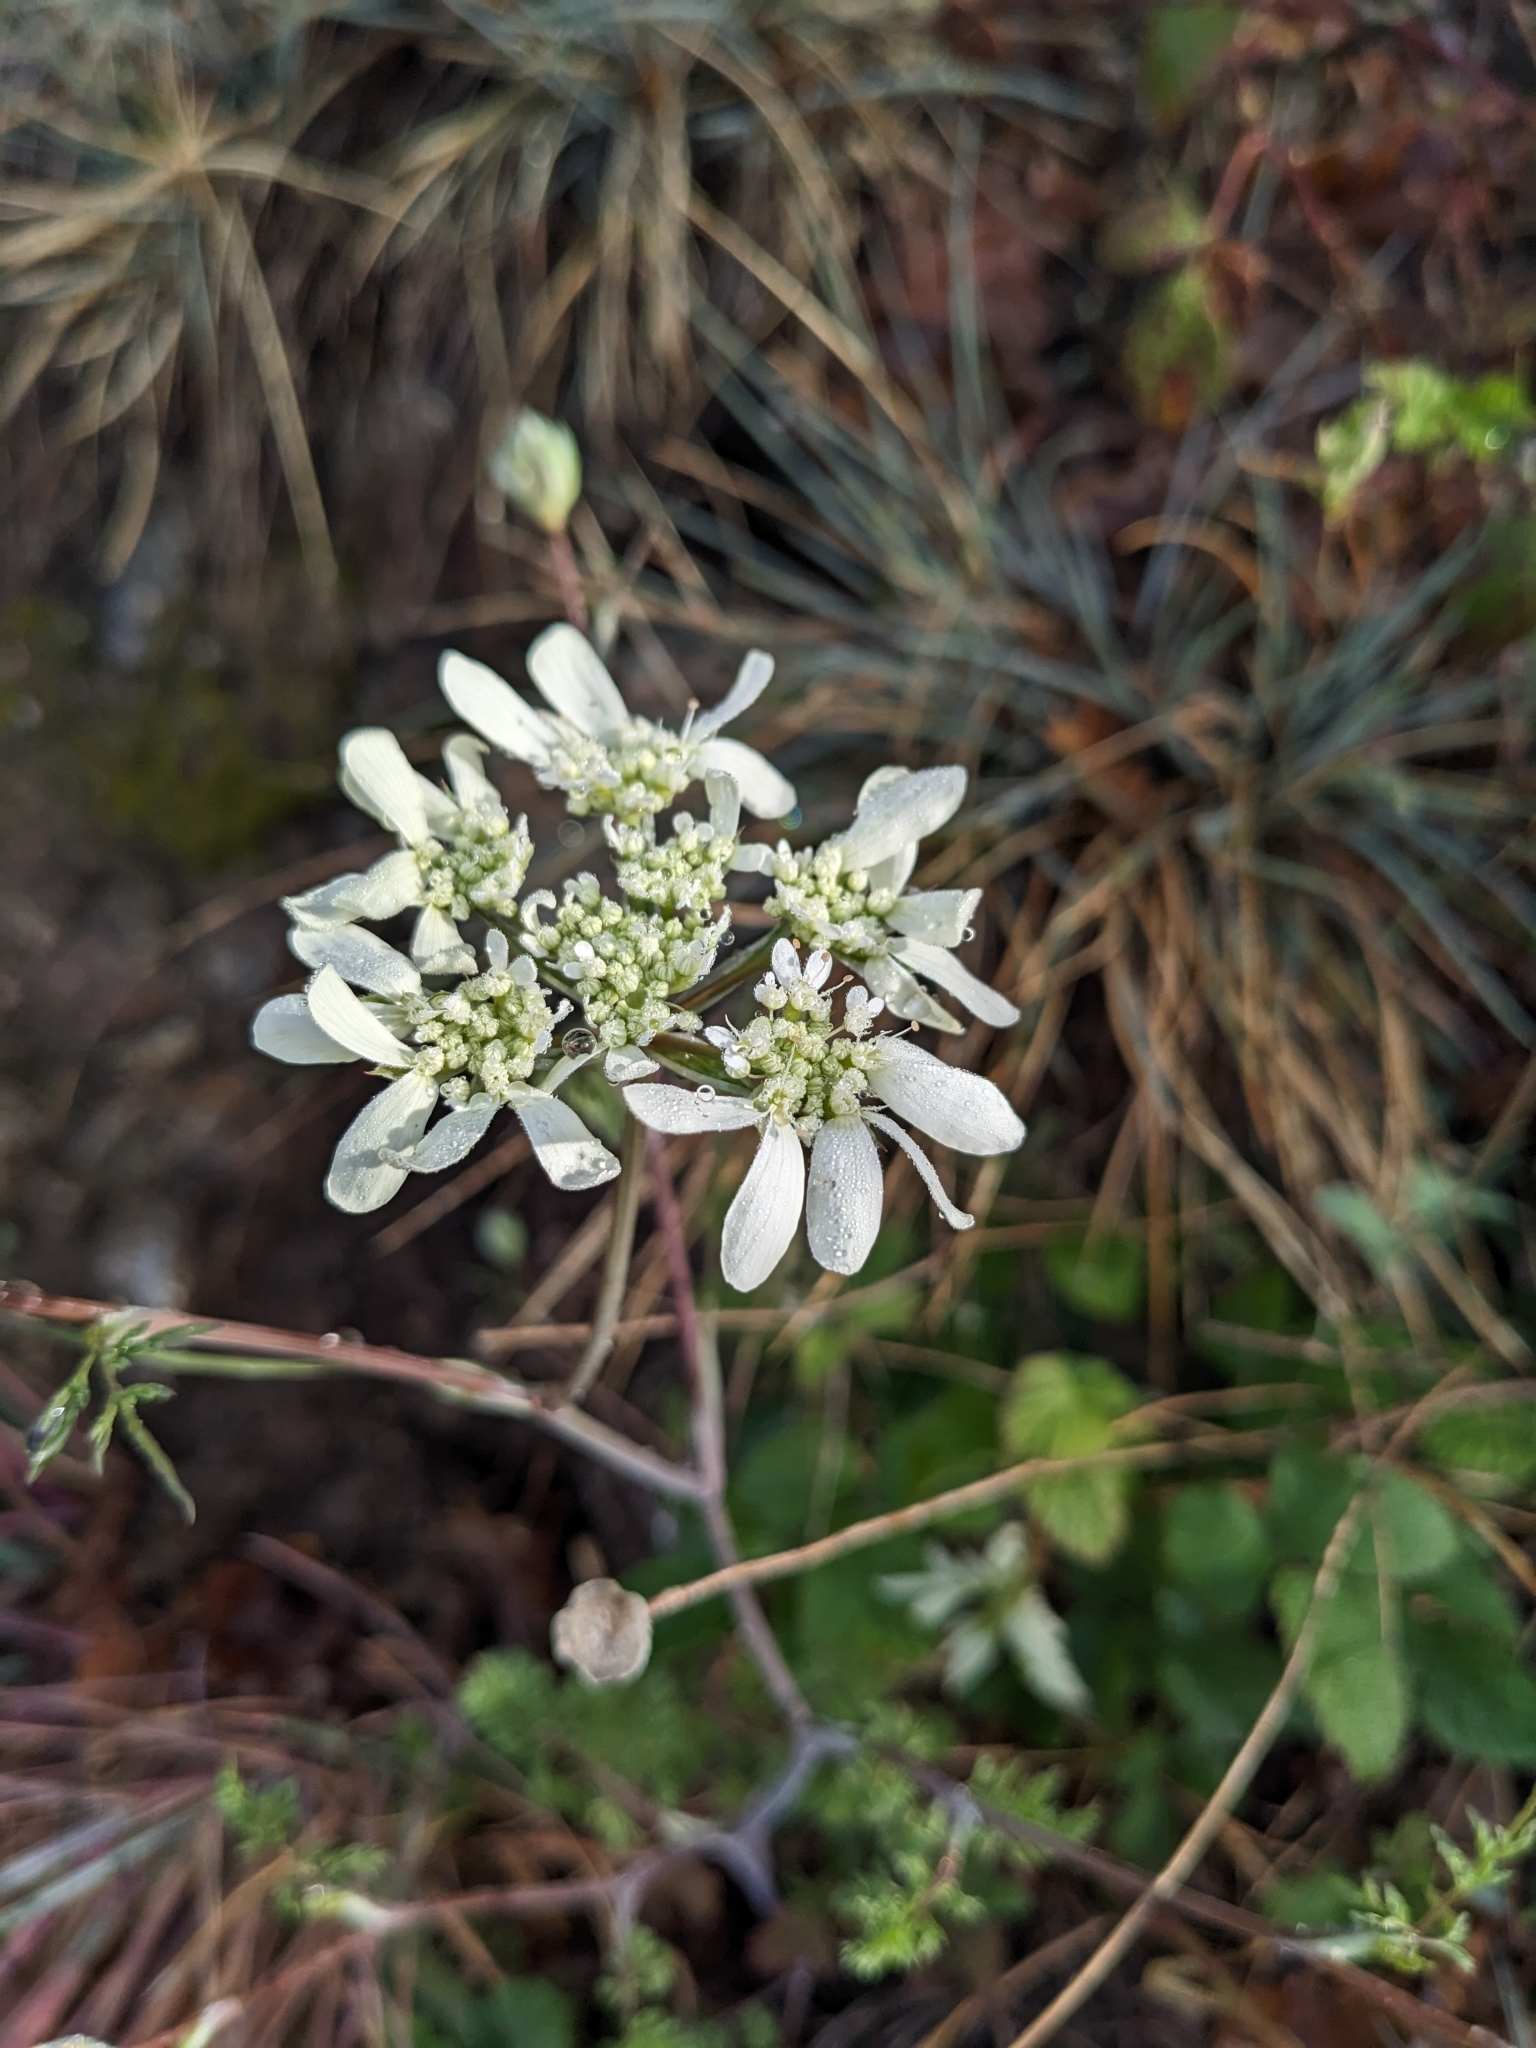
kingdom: Plantae
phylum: Tracheophyta
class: Magnoliopsida
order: Apiales
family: Apiaceae
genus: Orlaya
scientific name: Orlaya grandiflora
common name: White lace flower
